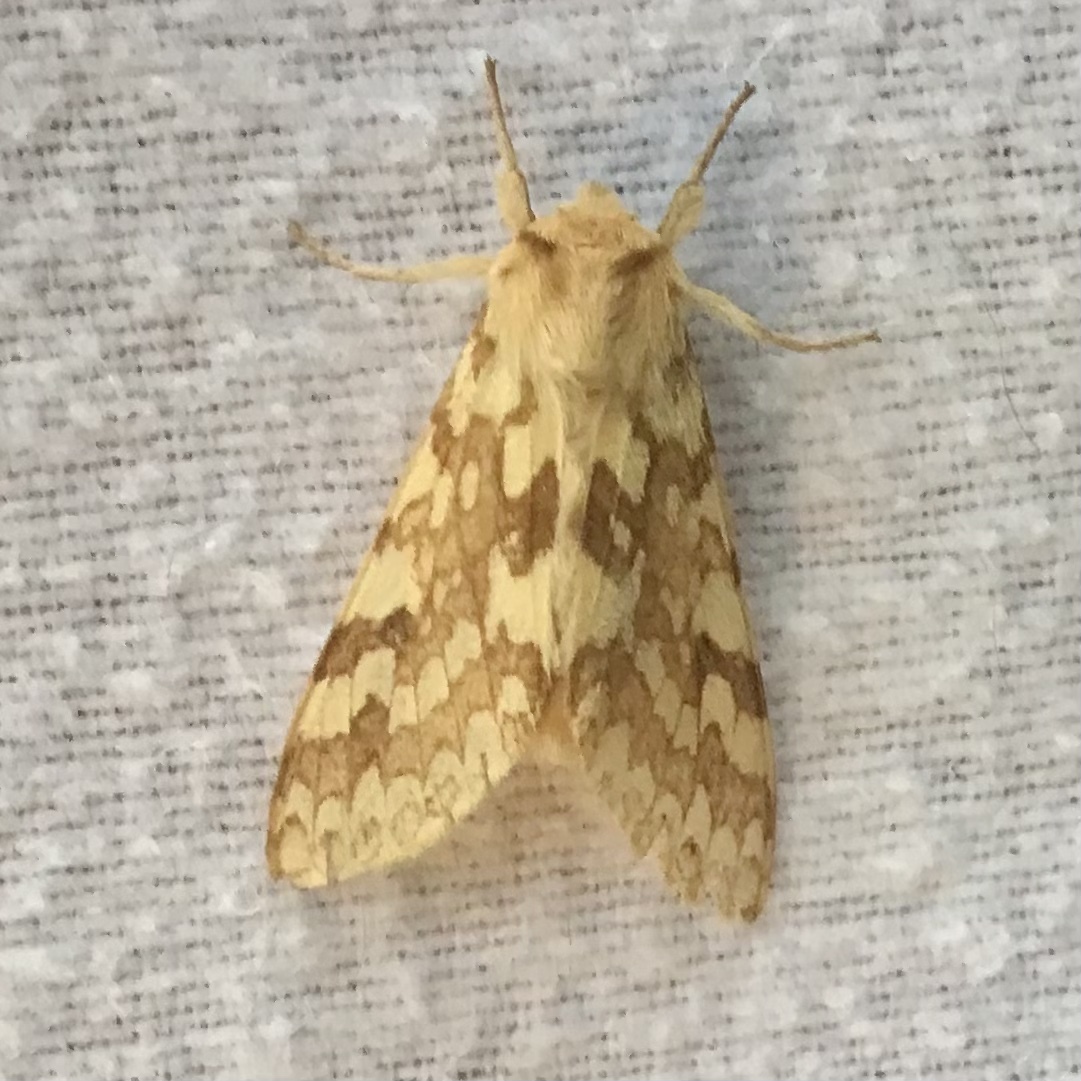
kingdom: Animalia
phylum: Arthropoda
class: Insecta
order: Lepidoptera
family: Erebidae
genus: Lophocampa
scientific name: Lophocampa maculata
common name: Spotted tussock moth
